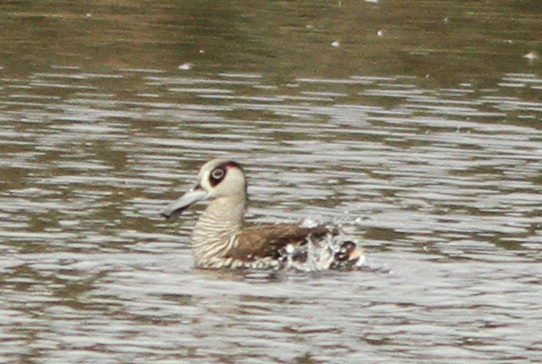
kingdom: Animalia
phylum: Chordata
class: Aves
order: Anseriformes
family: Anatidae
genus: Malacorhynchus
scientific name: Malacorhynchus membranaceus
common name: Pink-eared duck
